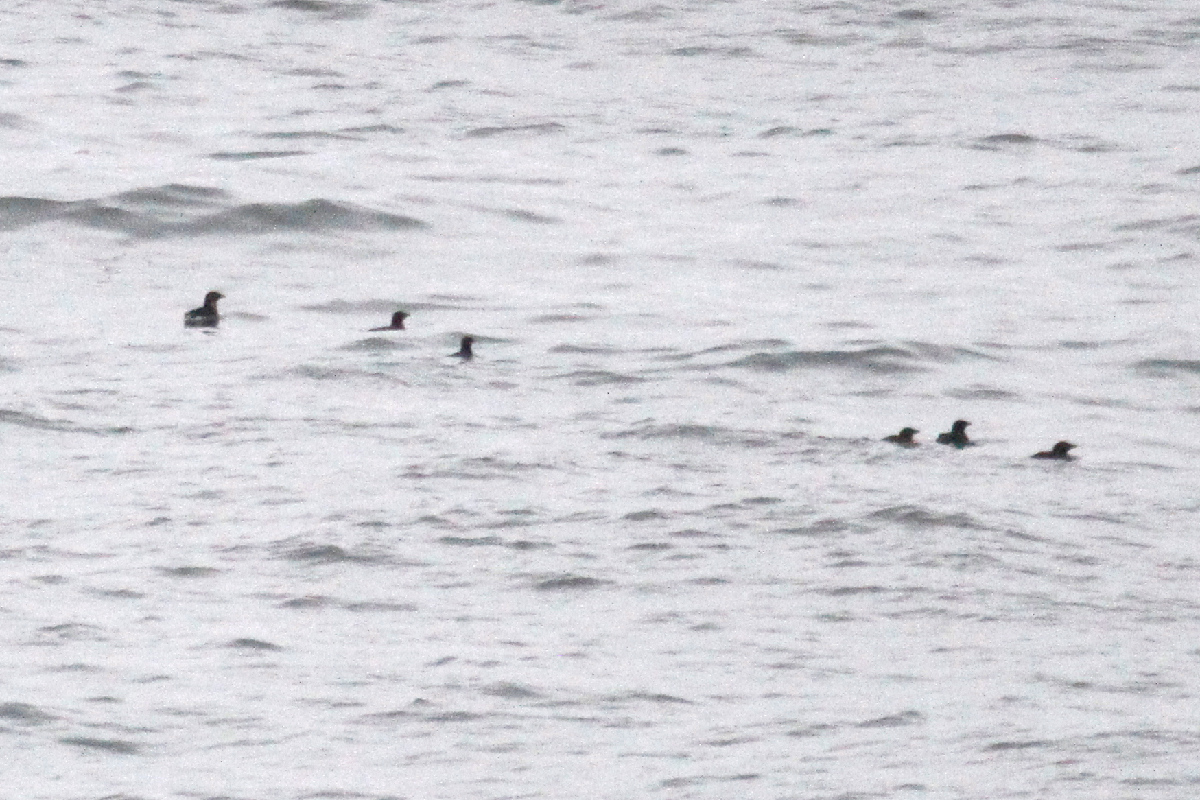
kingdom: Animalia
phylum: Chordata
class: Aves
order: Charadriiformes
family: Alcidae
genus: Cerorhinca
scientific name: Cerorhinca monocerata
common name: Rhinoceros auklet
